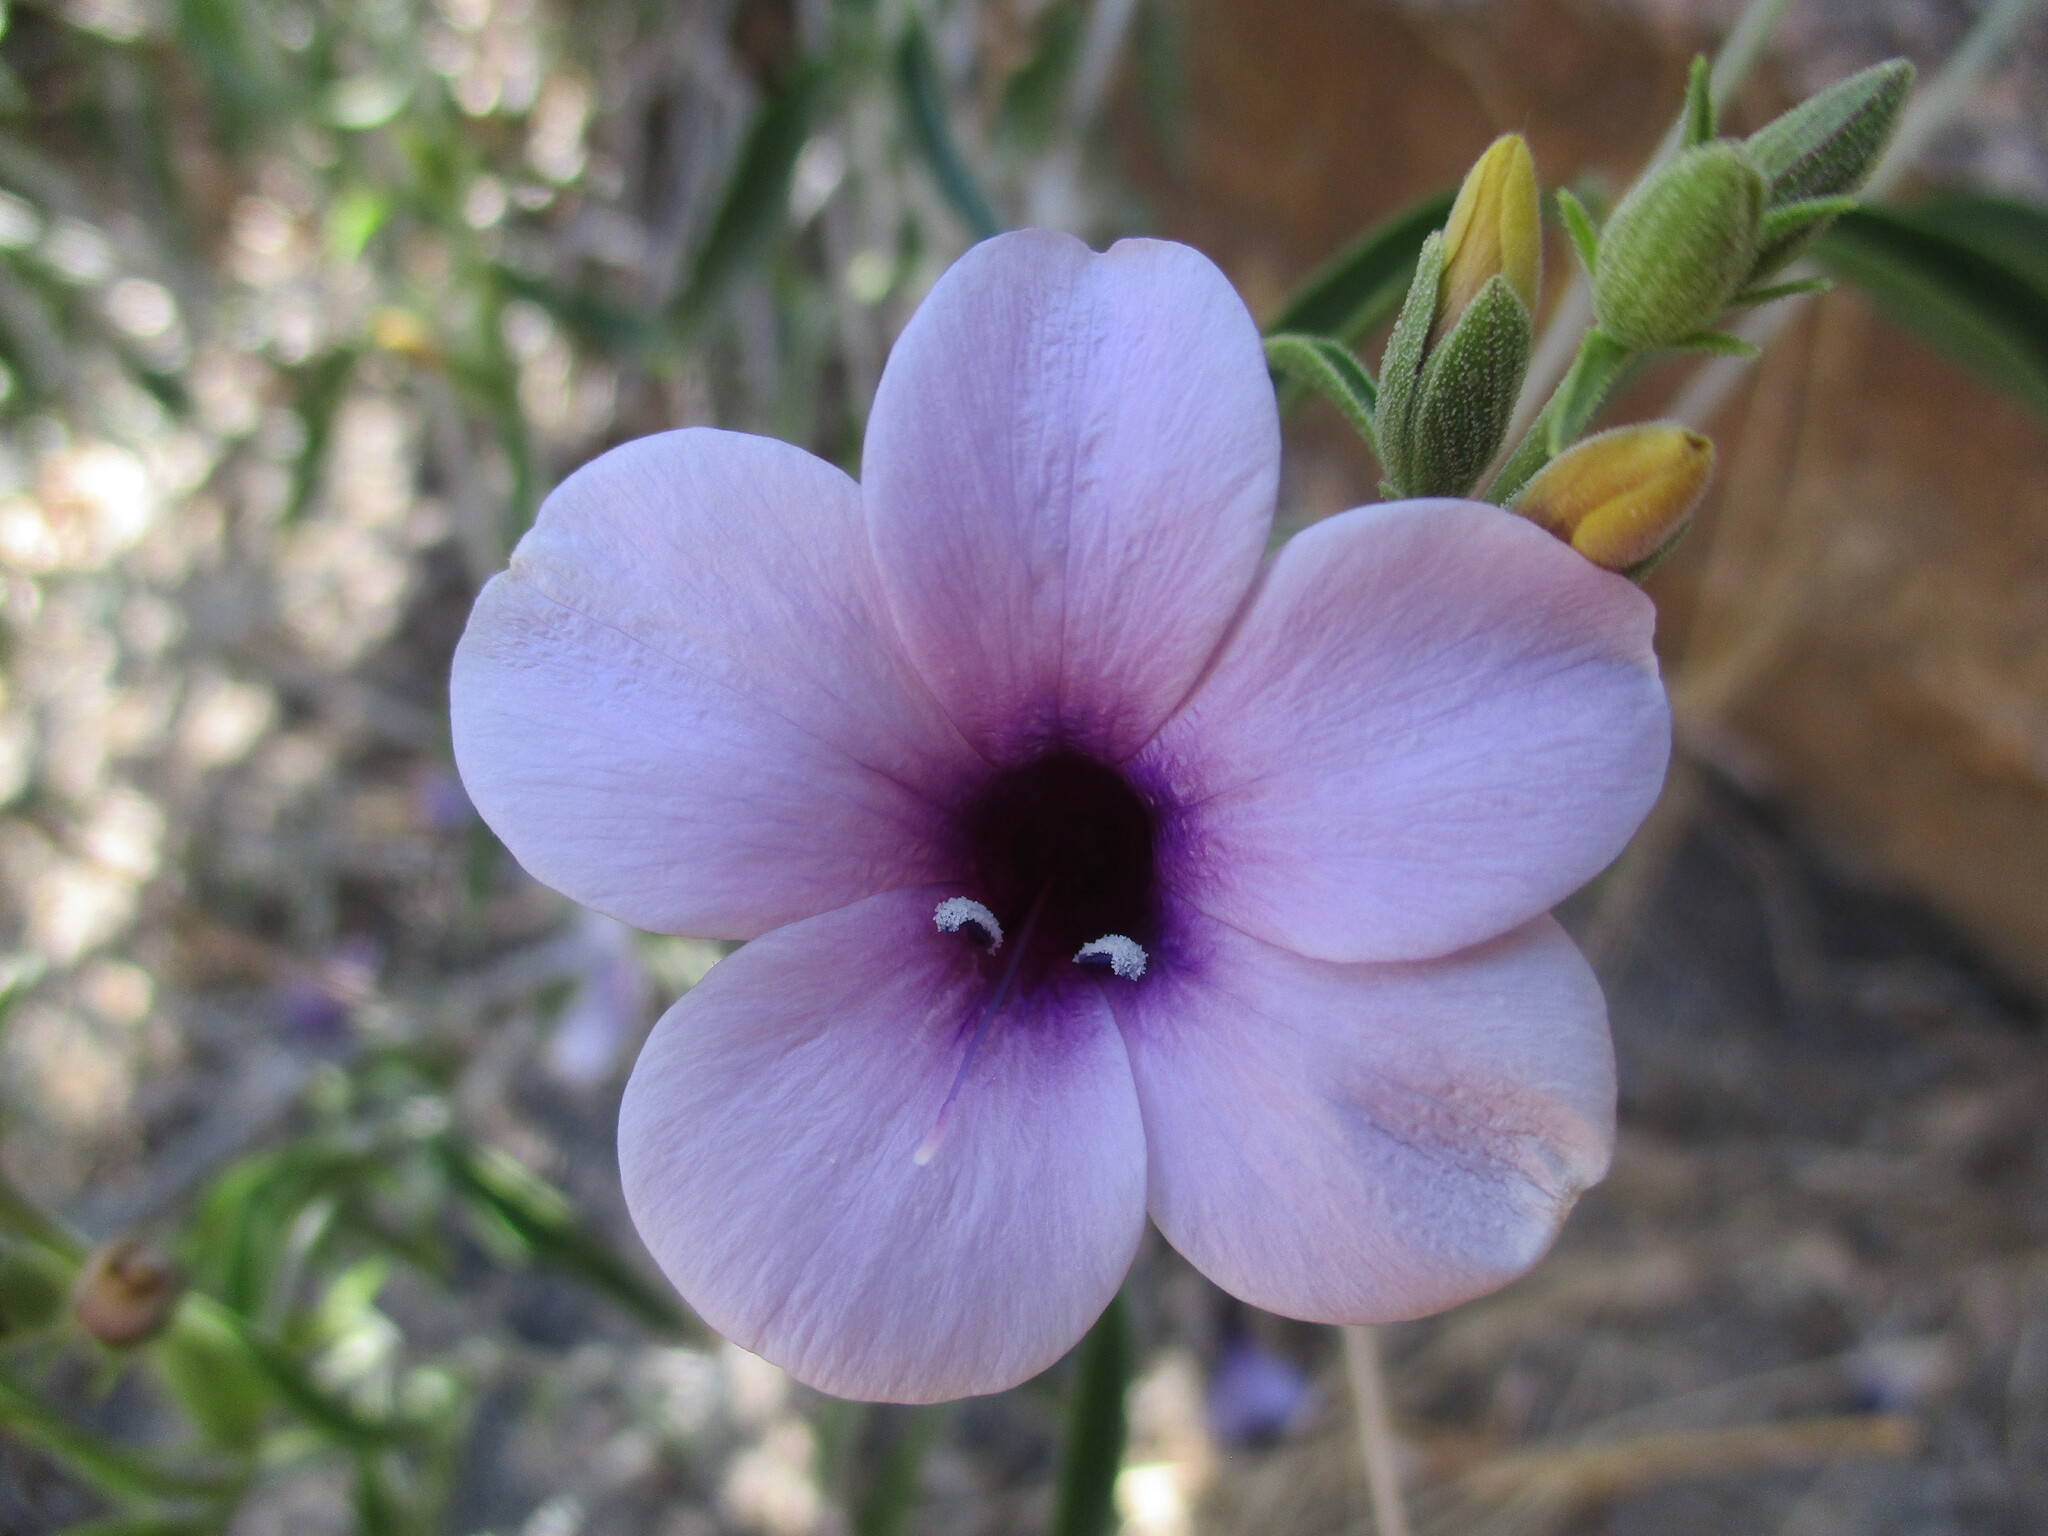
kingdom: Plantae
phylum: Tracheophyta
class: Magnoliopsida
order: Lamiales
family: Acanthaceae
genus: Barleria
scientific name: Barleria lancifolia
